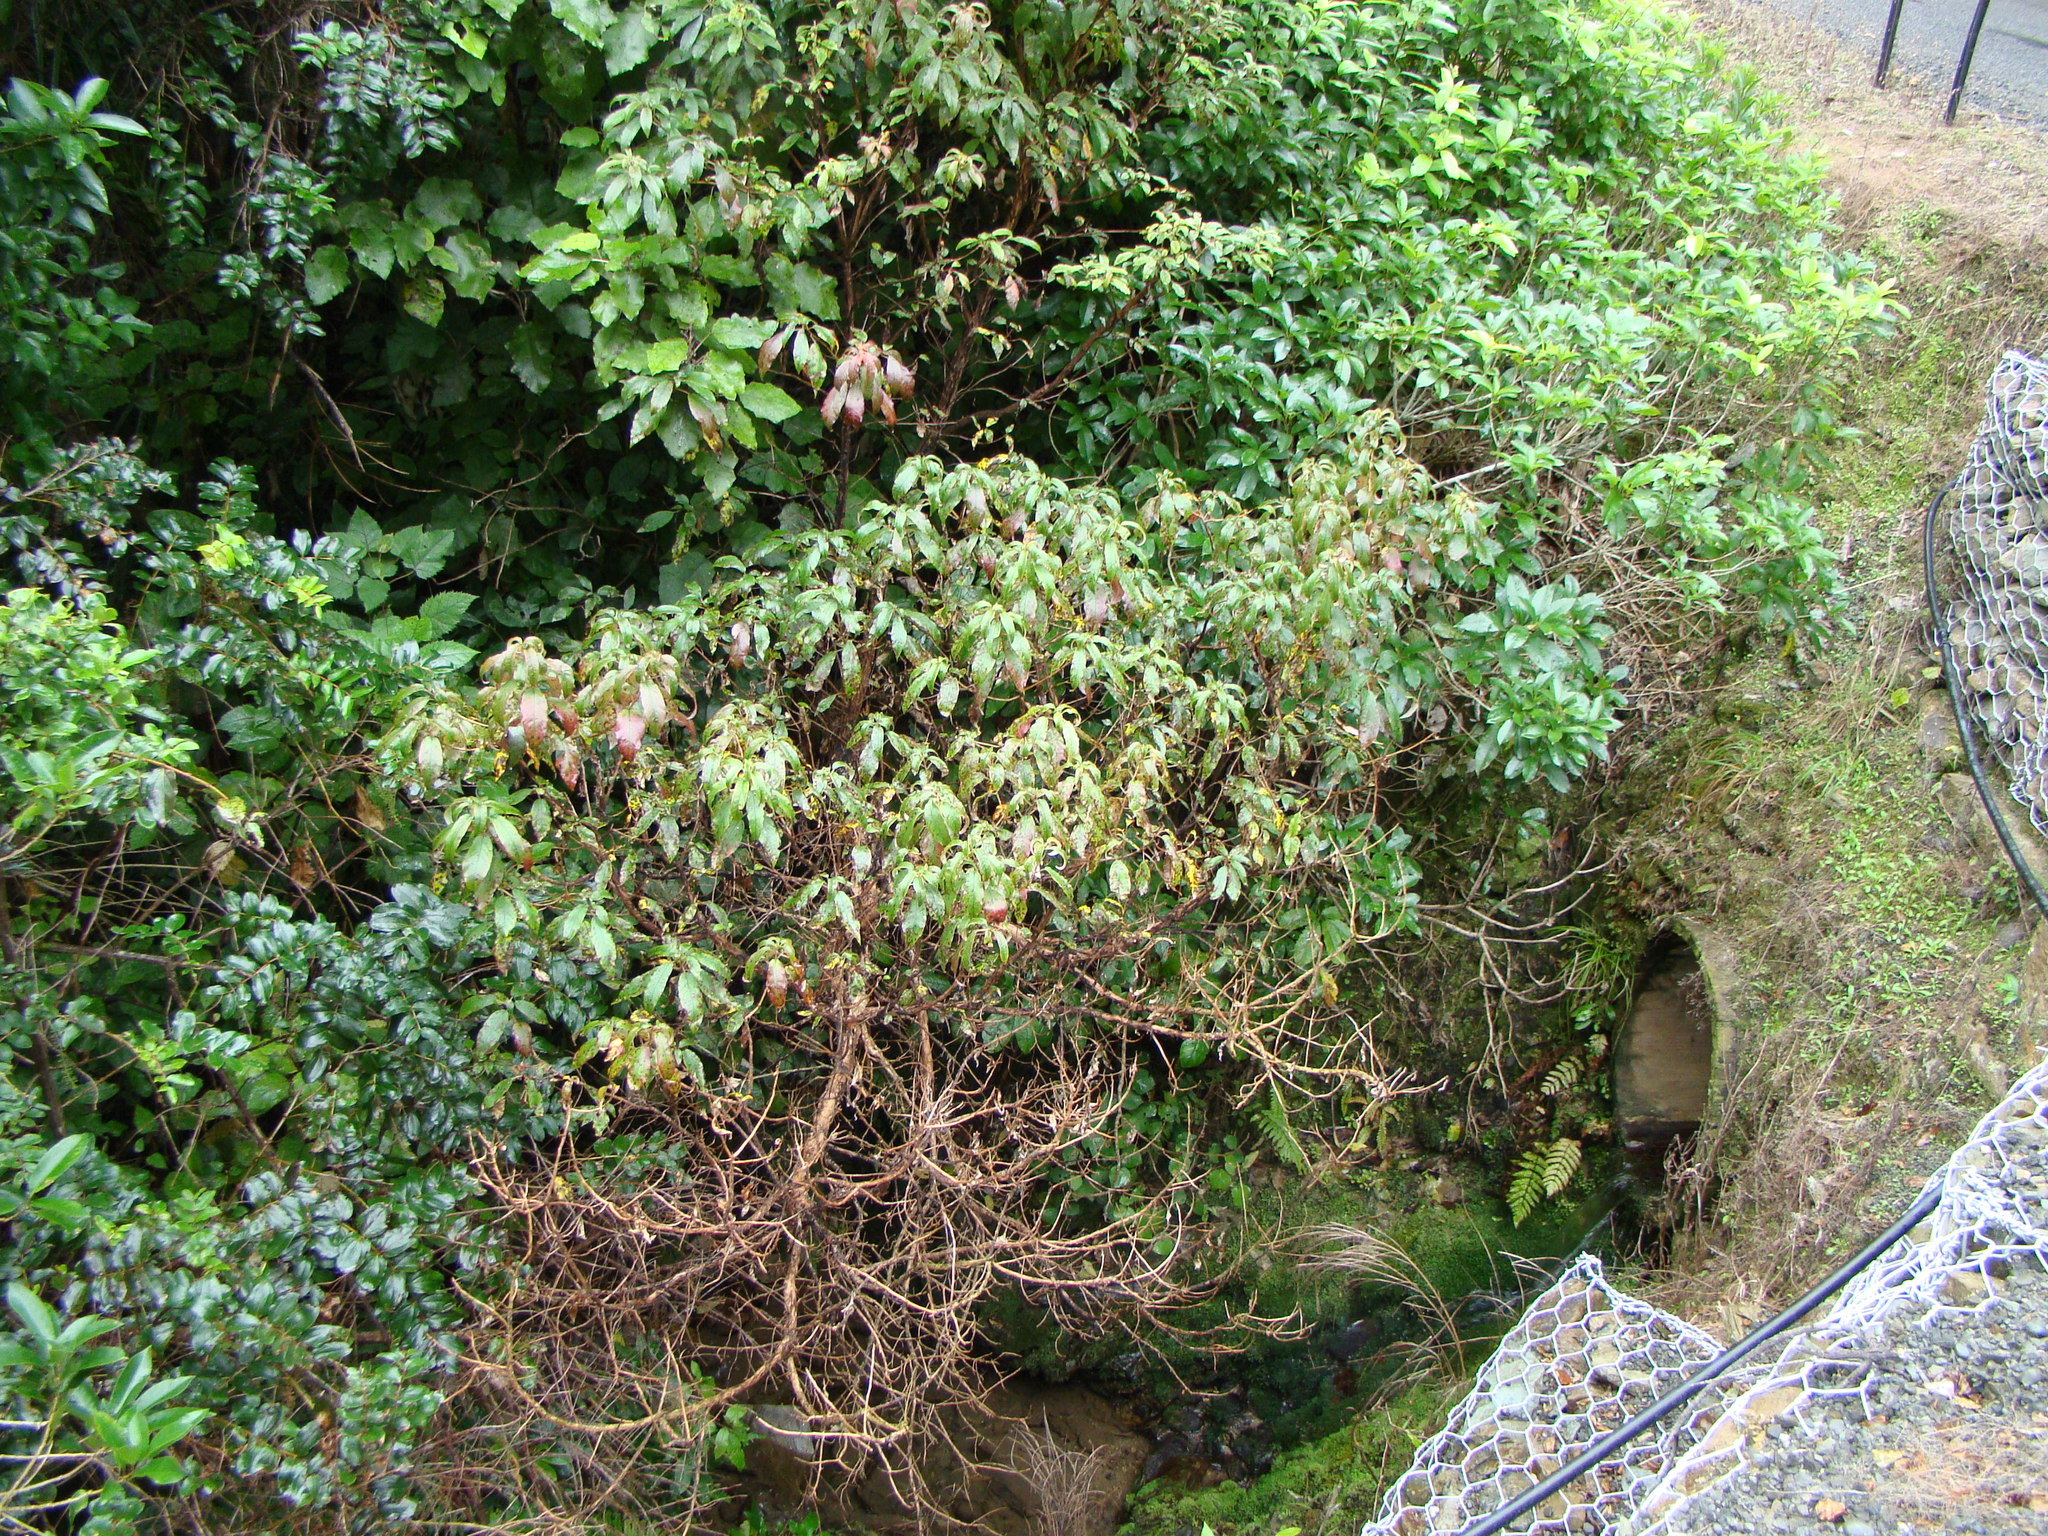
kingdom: Plantae
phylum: Tracheophyta
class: Magnoliopsida
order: Myrtales
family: Onagraceae
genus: Fuchsia
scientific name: Fuchsia excorticata
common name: Tree fuchsia
